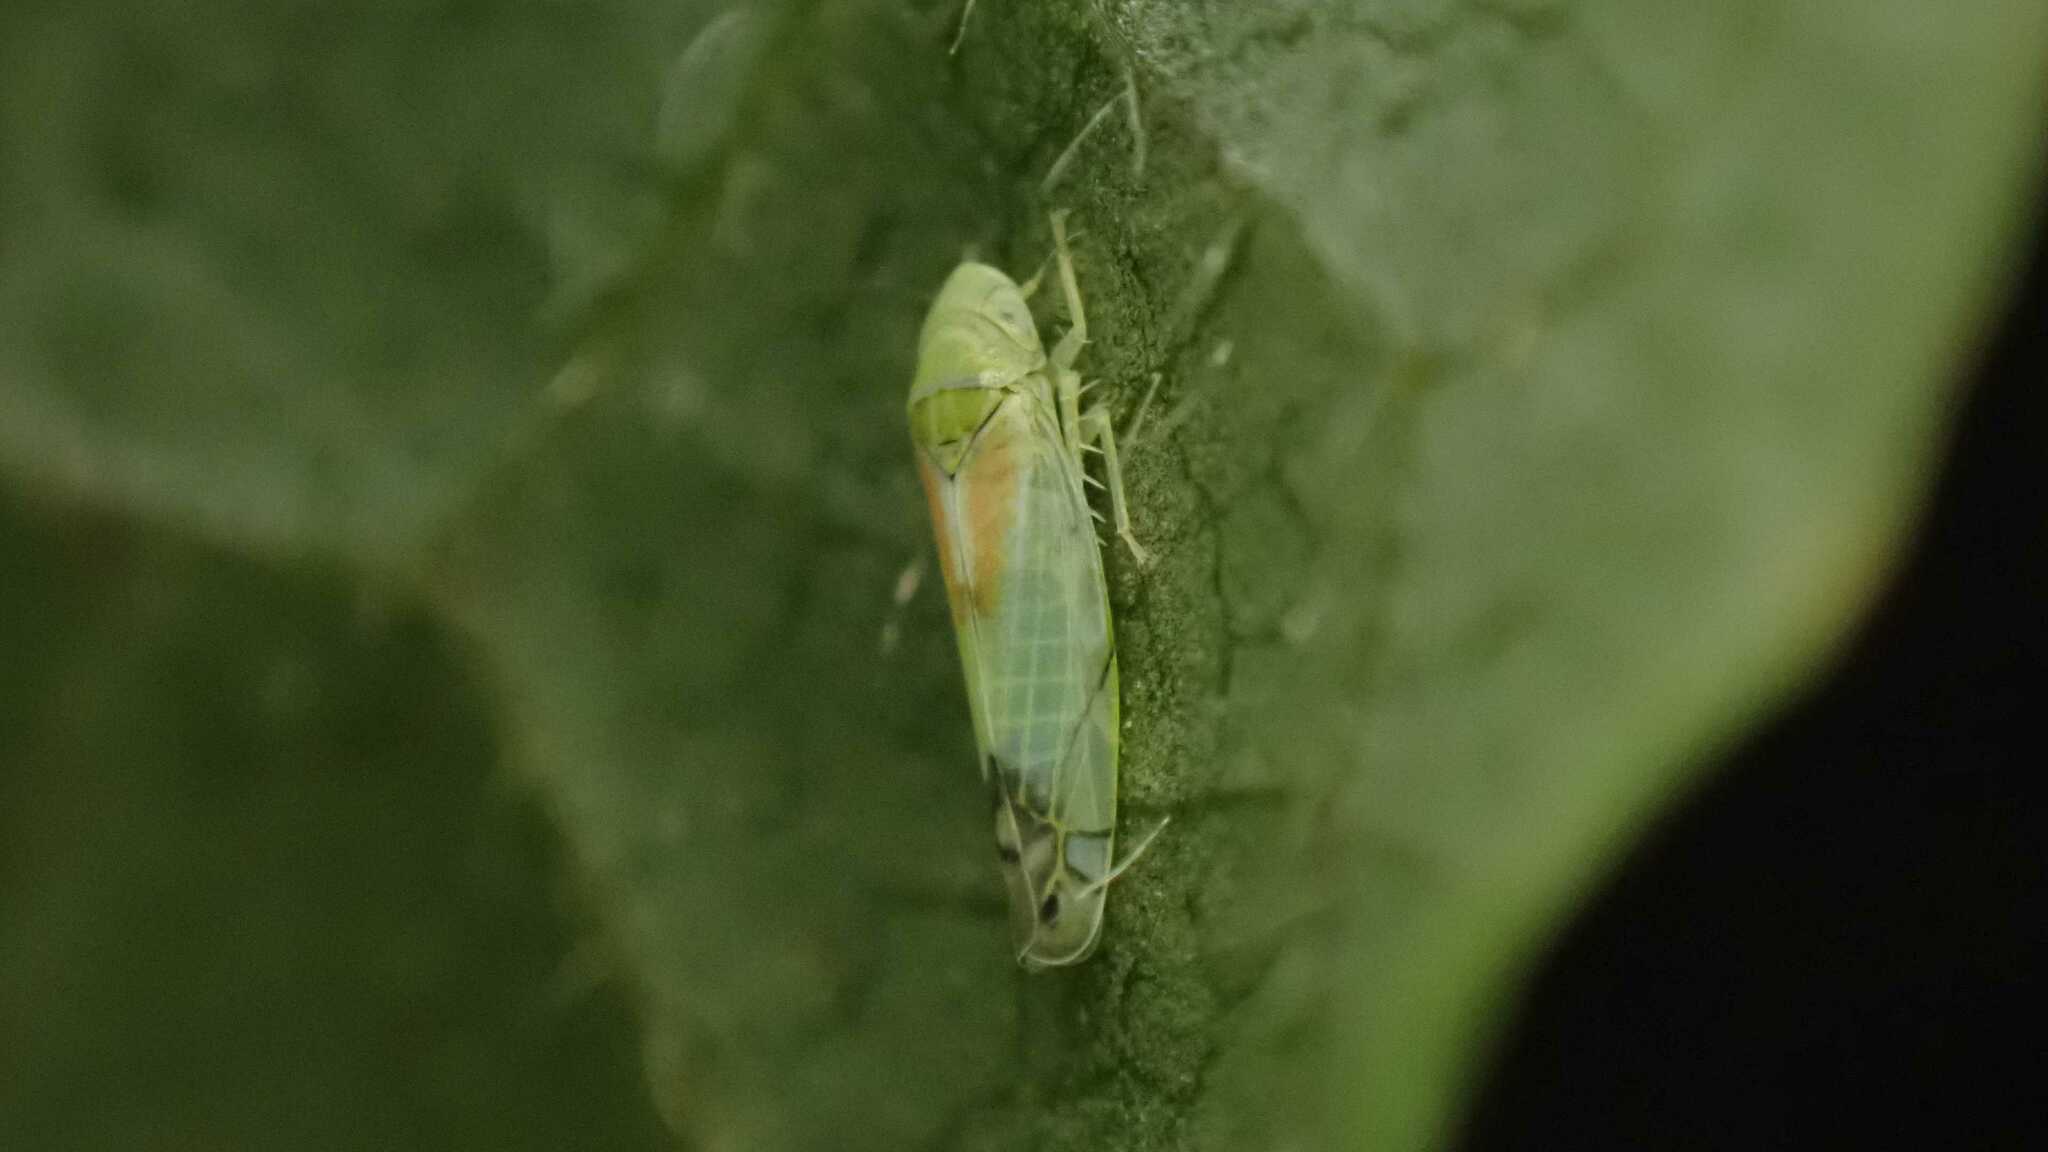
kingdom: Animalia
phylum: Arthropoda
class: Insecta
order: Hemiptera
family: Cicadellidae
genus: Zyginella
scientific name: Zyginella pulchra
